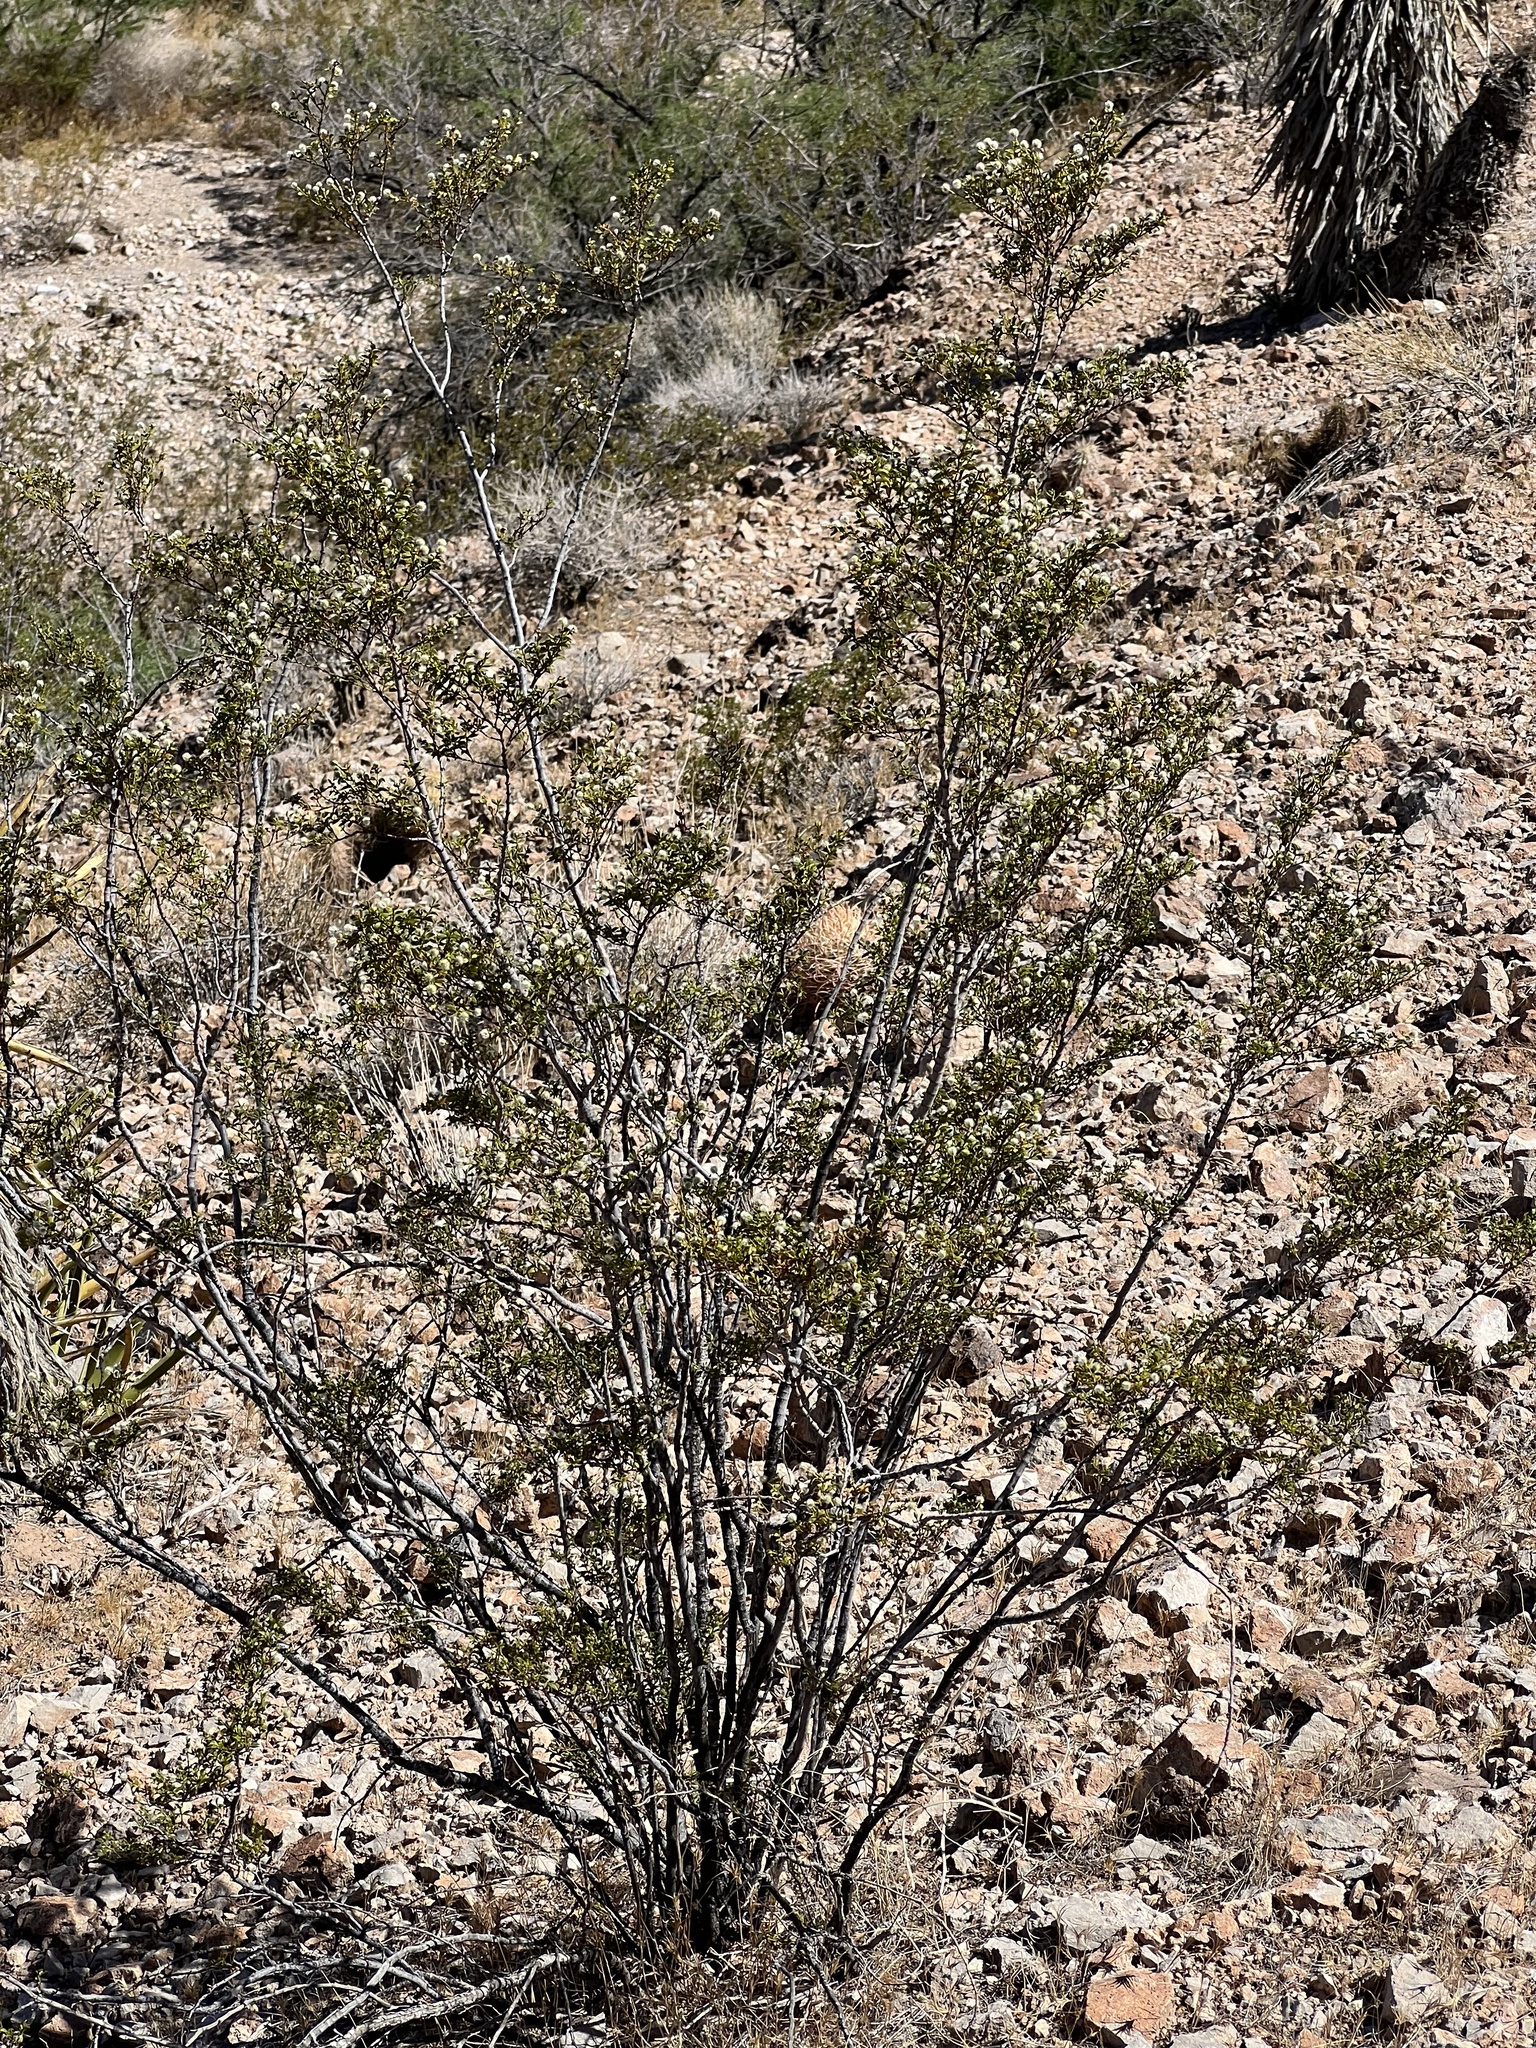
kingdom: Plantae
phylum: Tracheophyta
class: Magnoliopsida
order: Zygophyllales
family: Zygophyllaceae
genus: Larrea
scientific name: Larrea tridentata
